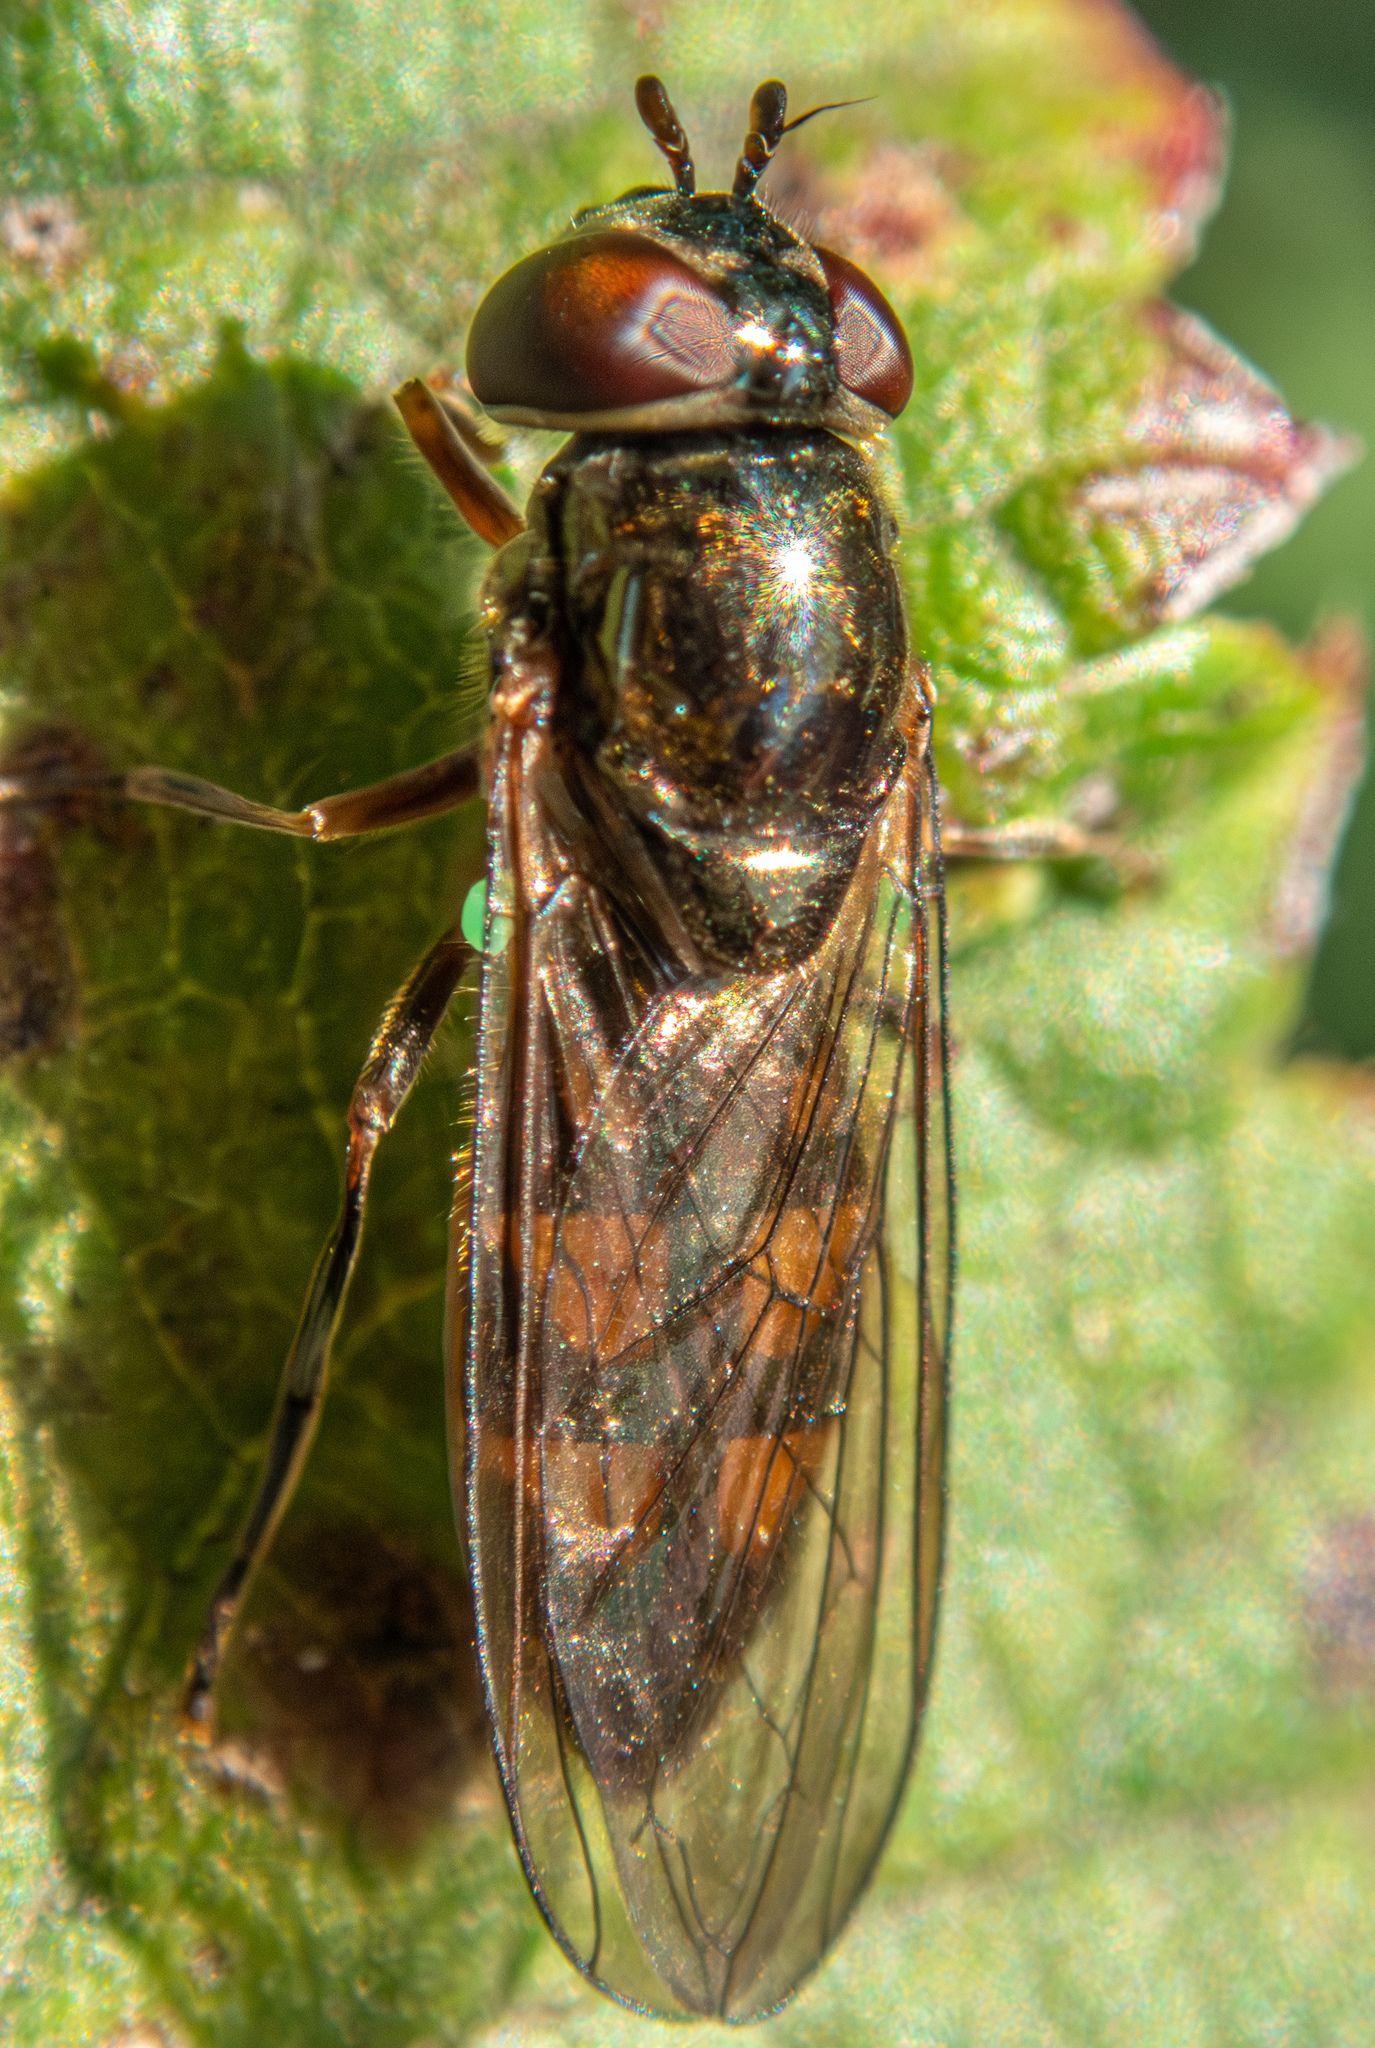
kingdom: Animalia
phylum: Arthropoda
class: Insecta
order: Diptera
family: Syrphidae
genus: Melanostoma
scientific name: Melanostoma mellina
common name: Hover fly
